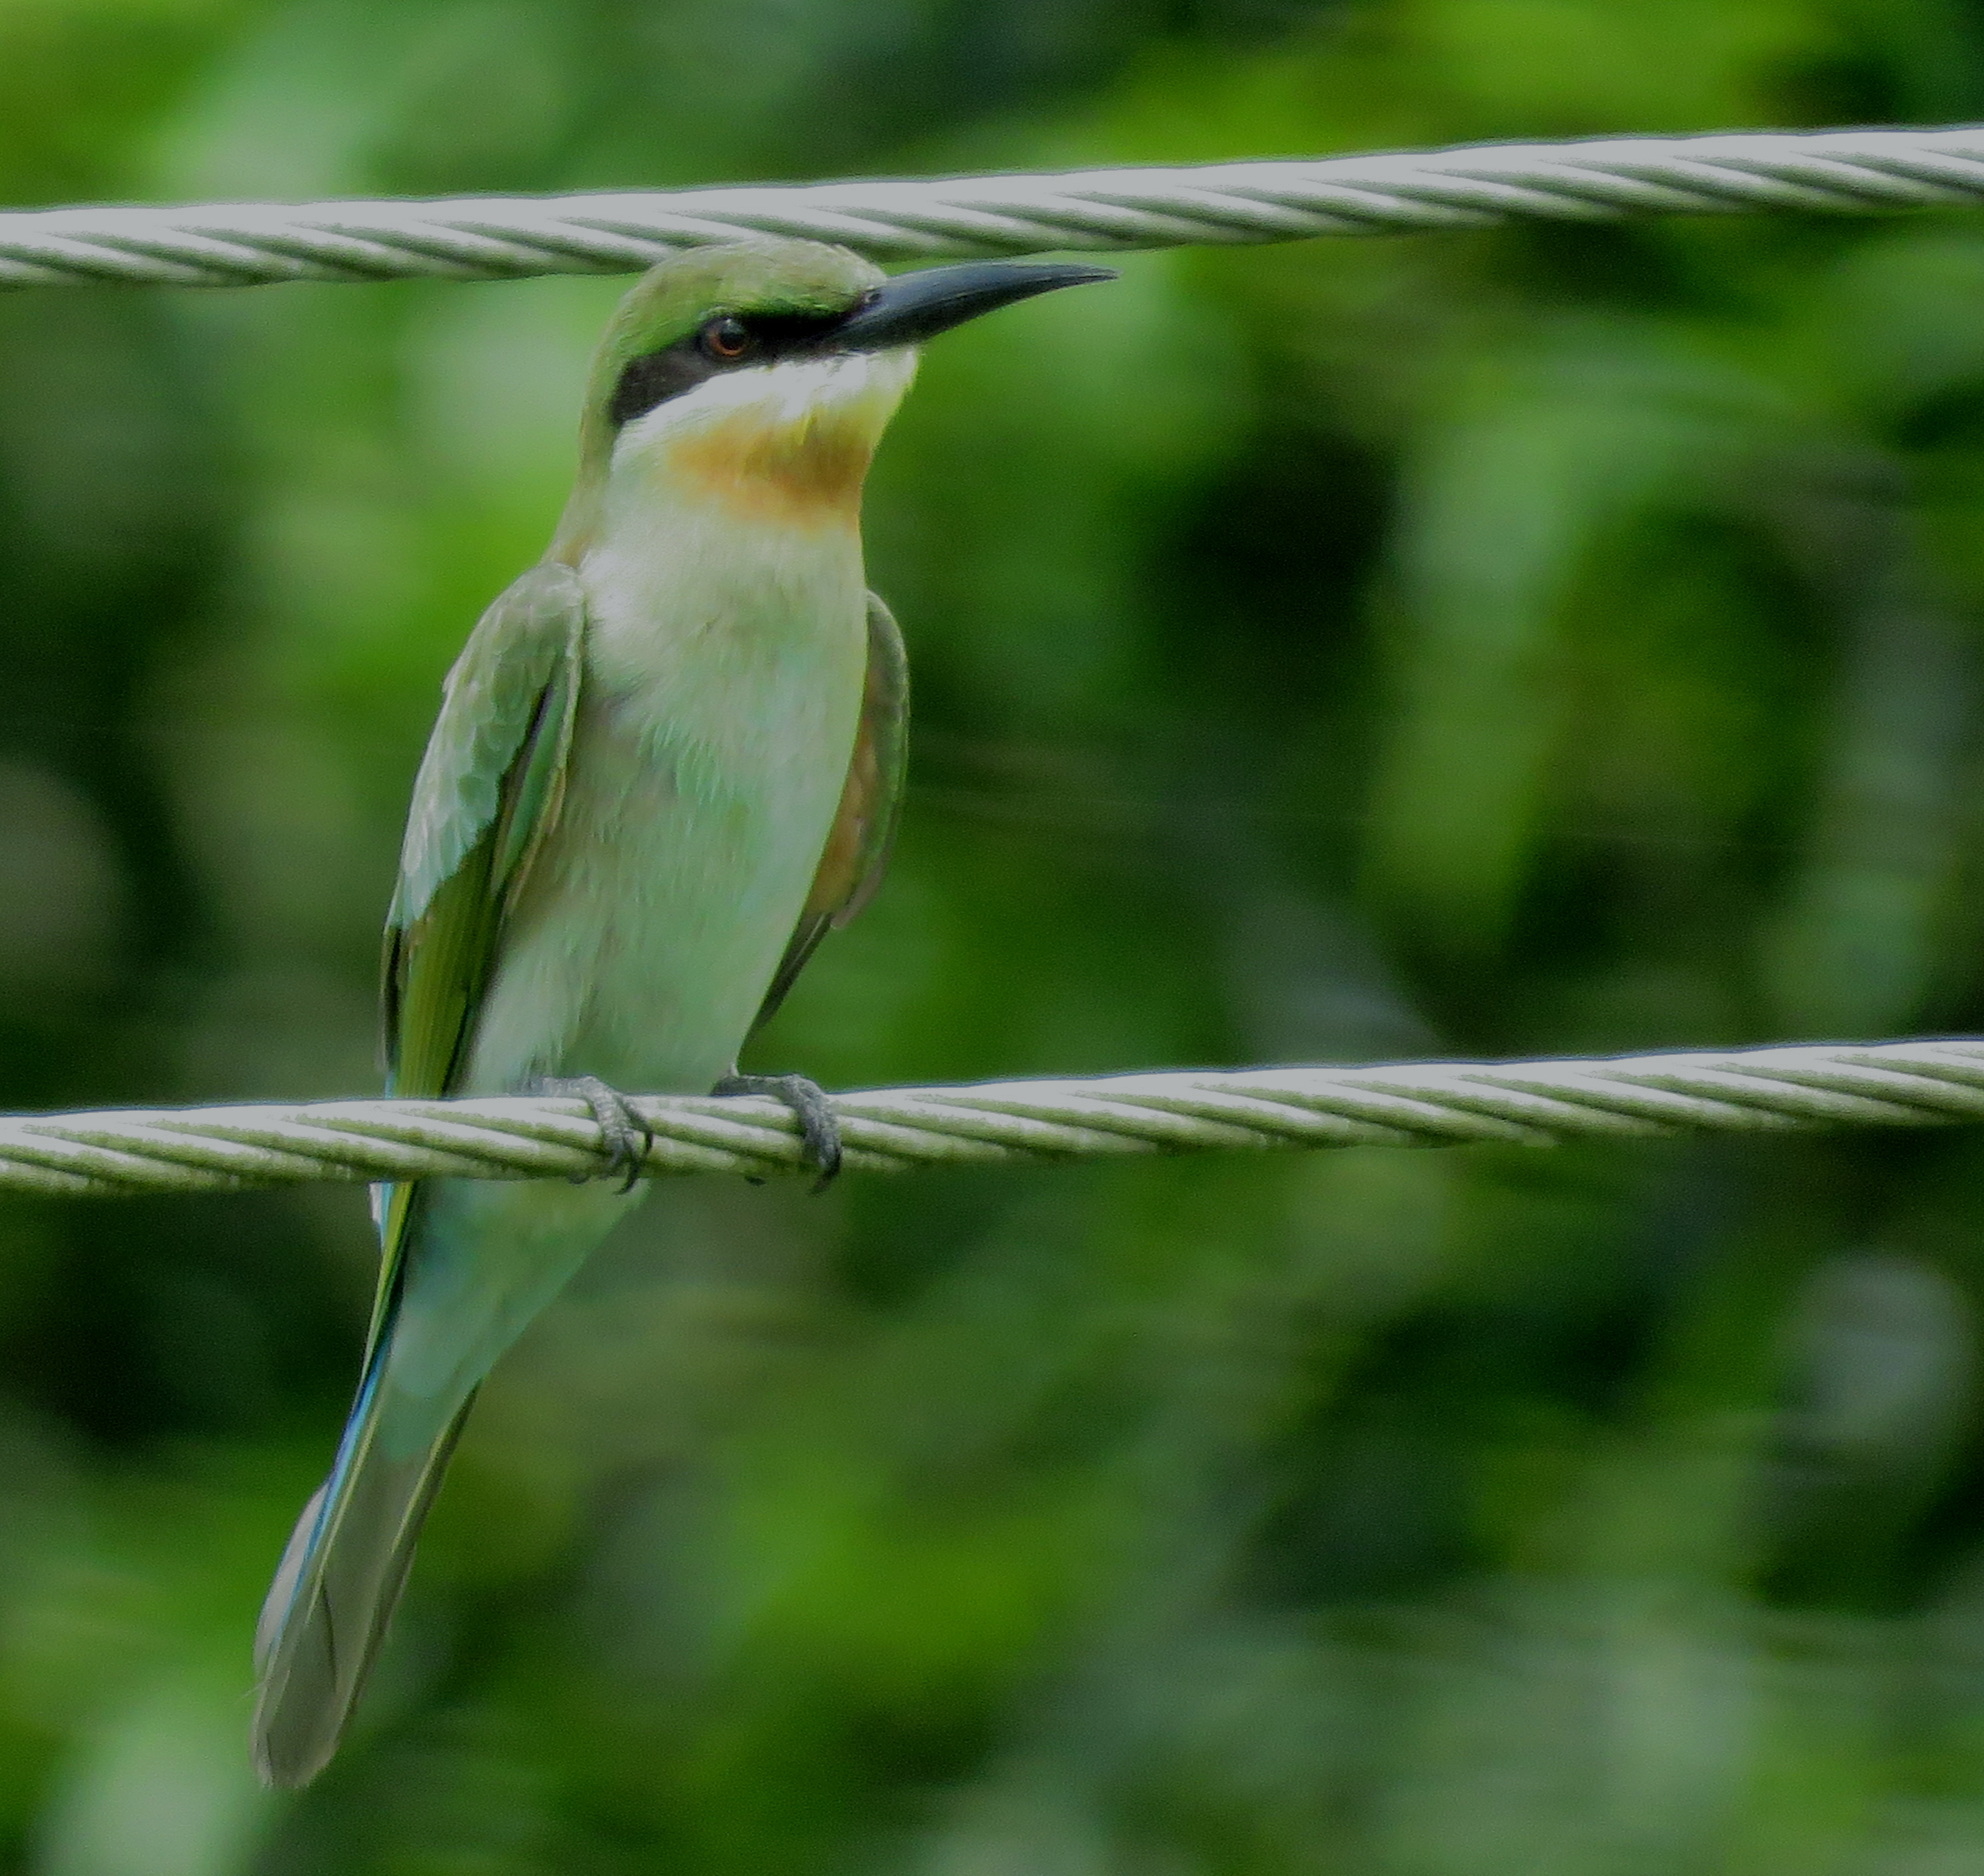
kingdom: Animalia
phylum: Chordata
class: Aves
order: Coraciiformes
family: Meropidae
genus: Merops
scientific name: Merops philippinus
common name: Blue-tailed bee-eater
